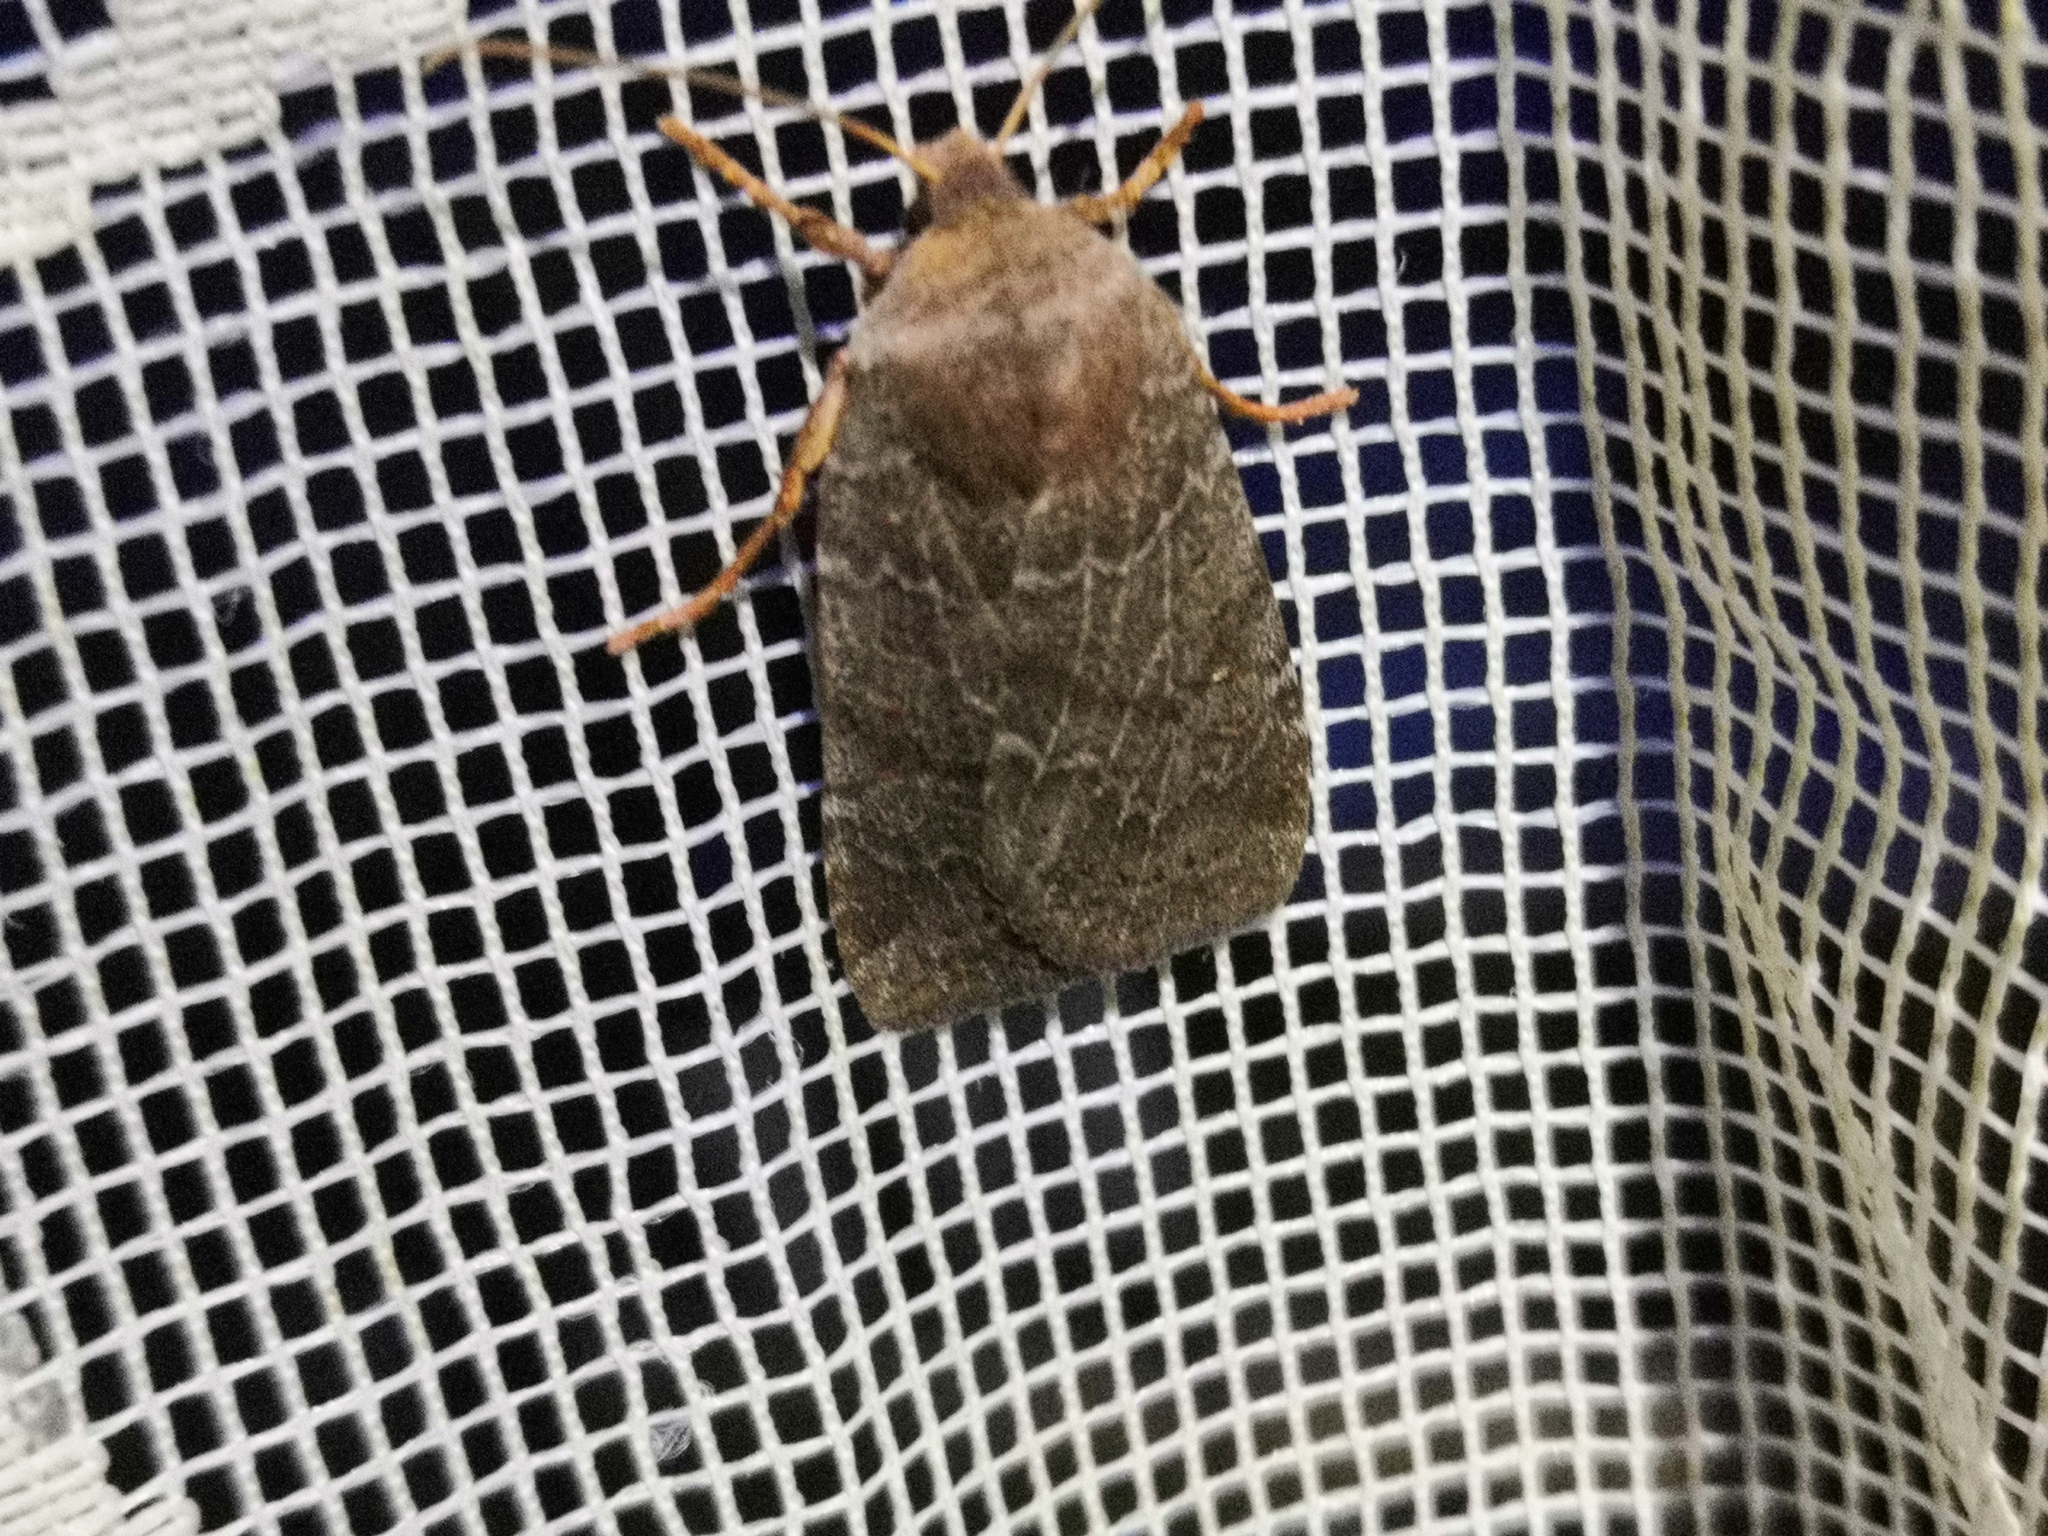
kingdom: Animalia
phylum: Arthropoda
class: Insecta
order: Lepidoptera
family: Noctuidae
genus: Conistra
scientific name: Conistra vaccinii
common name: Chestnut
